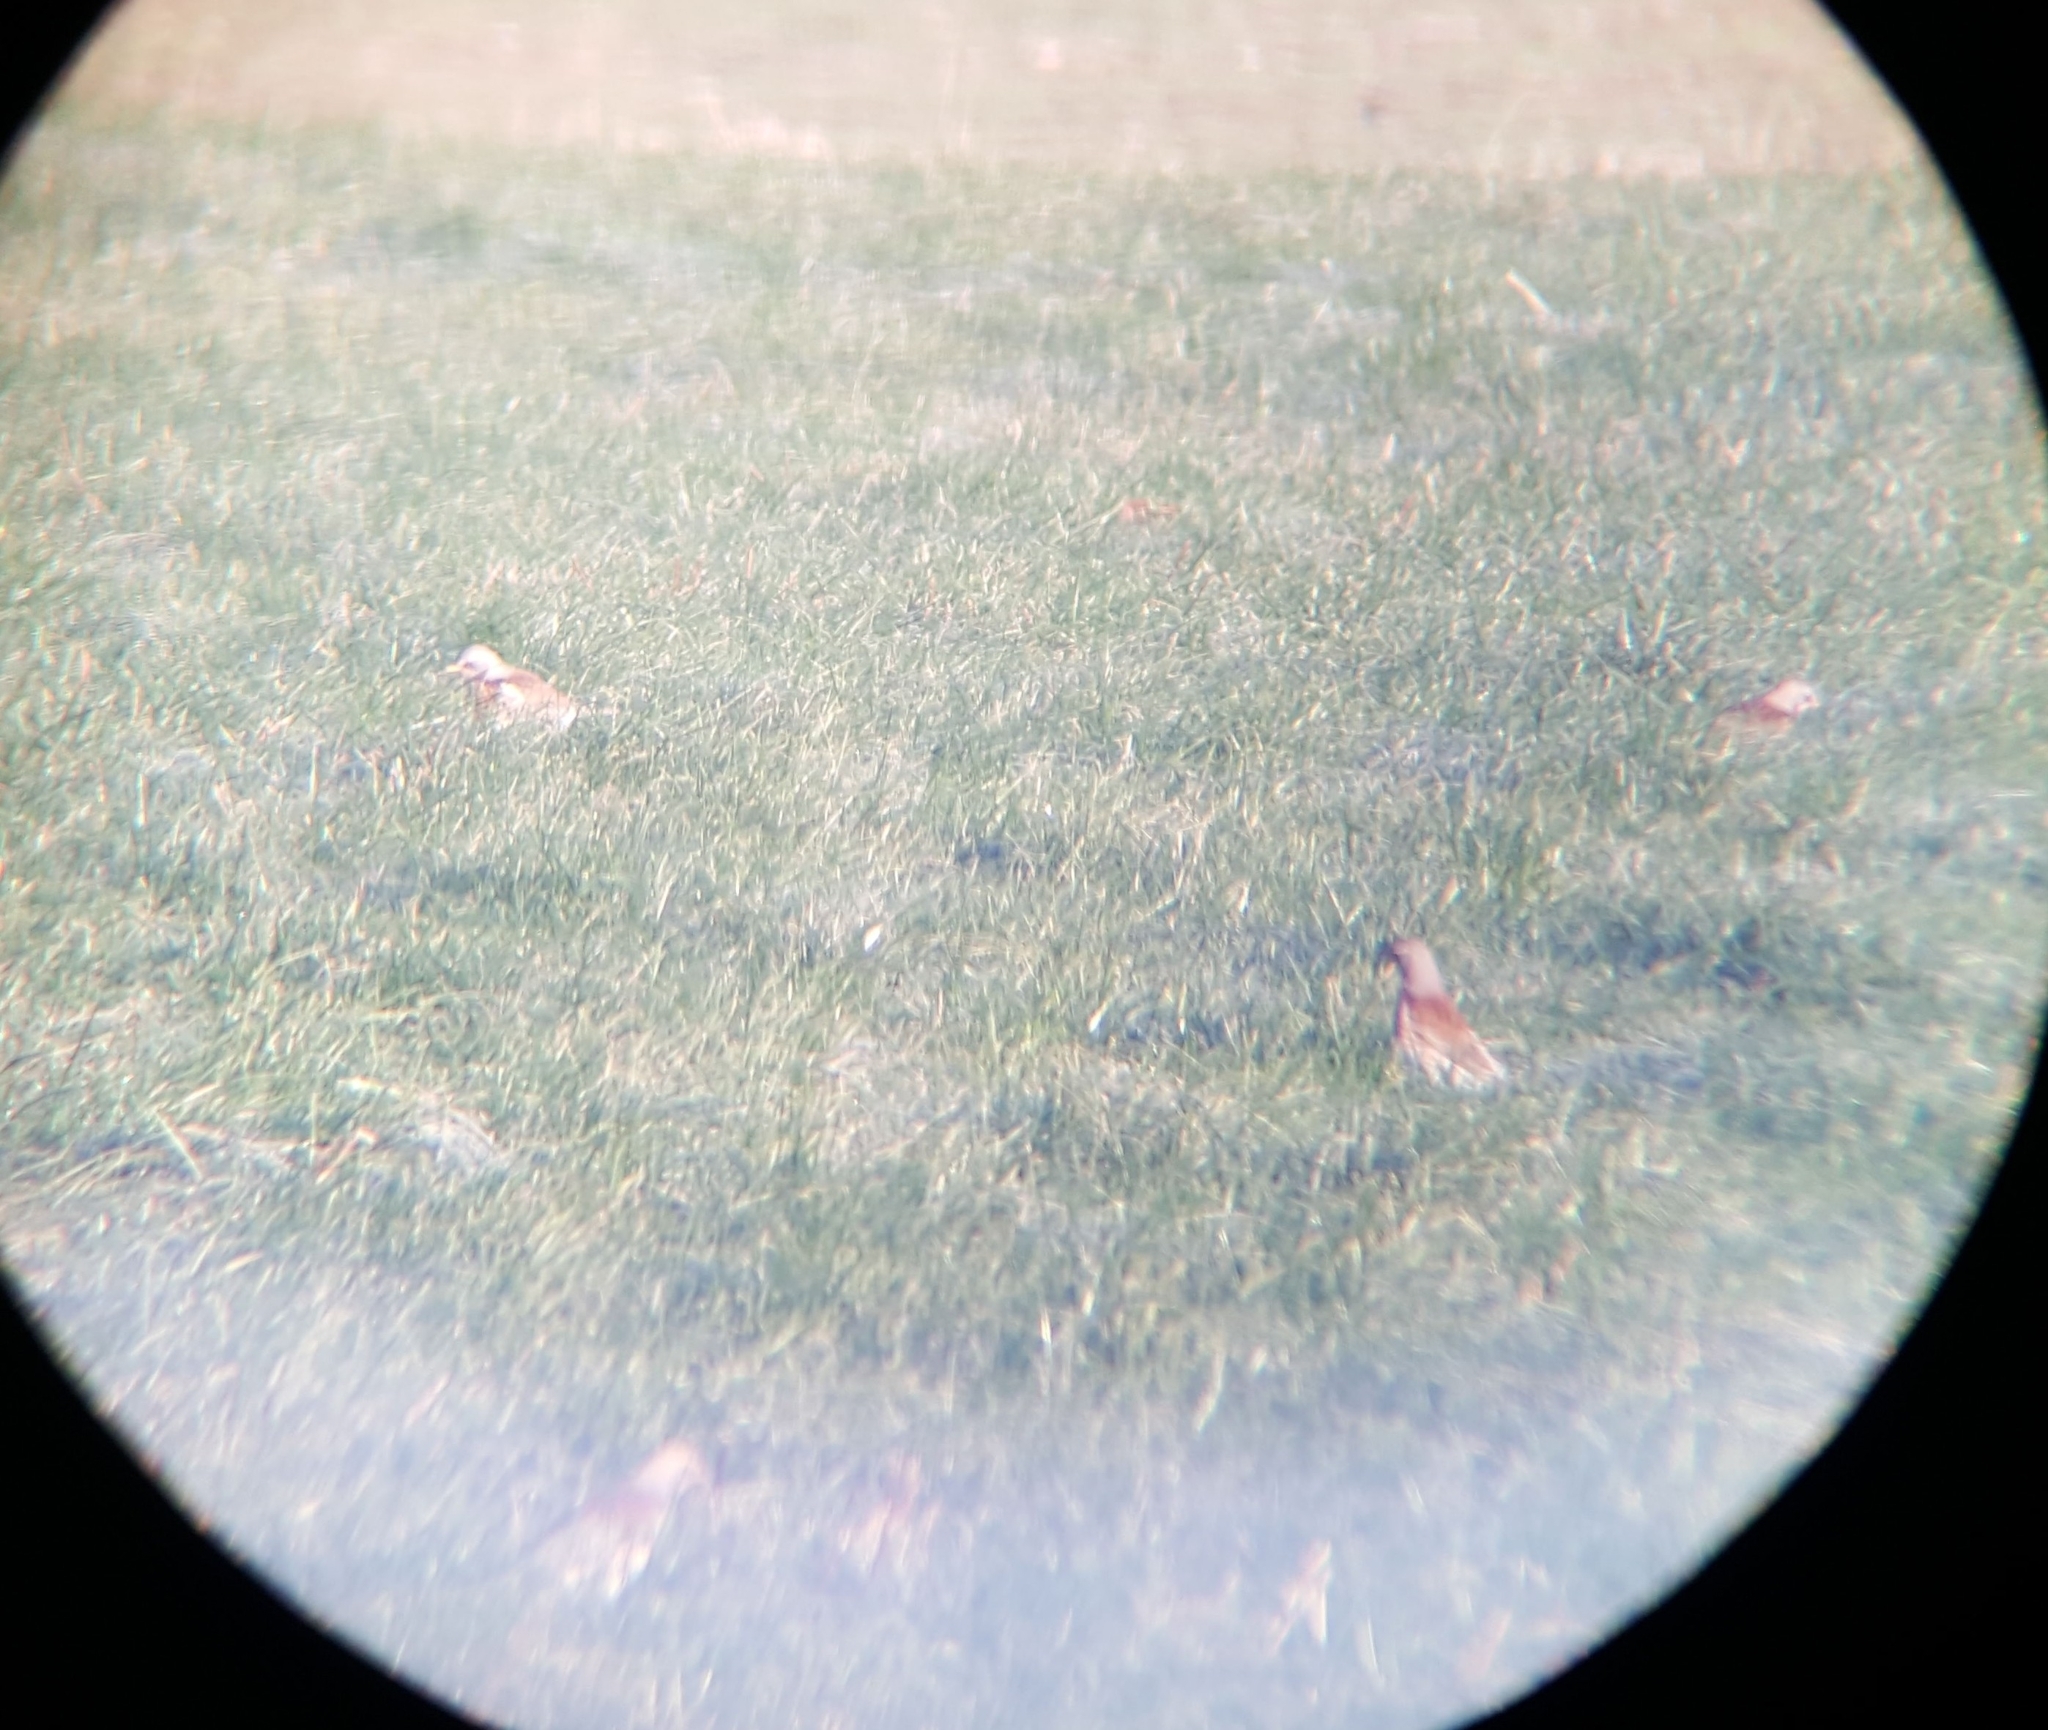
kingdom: Animalia
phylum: Chordata
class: Aves
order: Passeriformes
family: Turdidae
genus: Turdus
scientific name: Turdus pilaris
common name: Fieldfare
